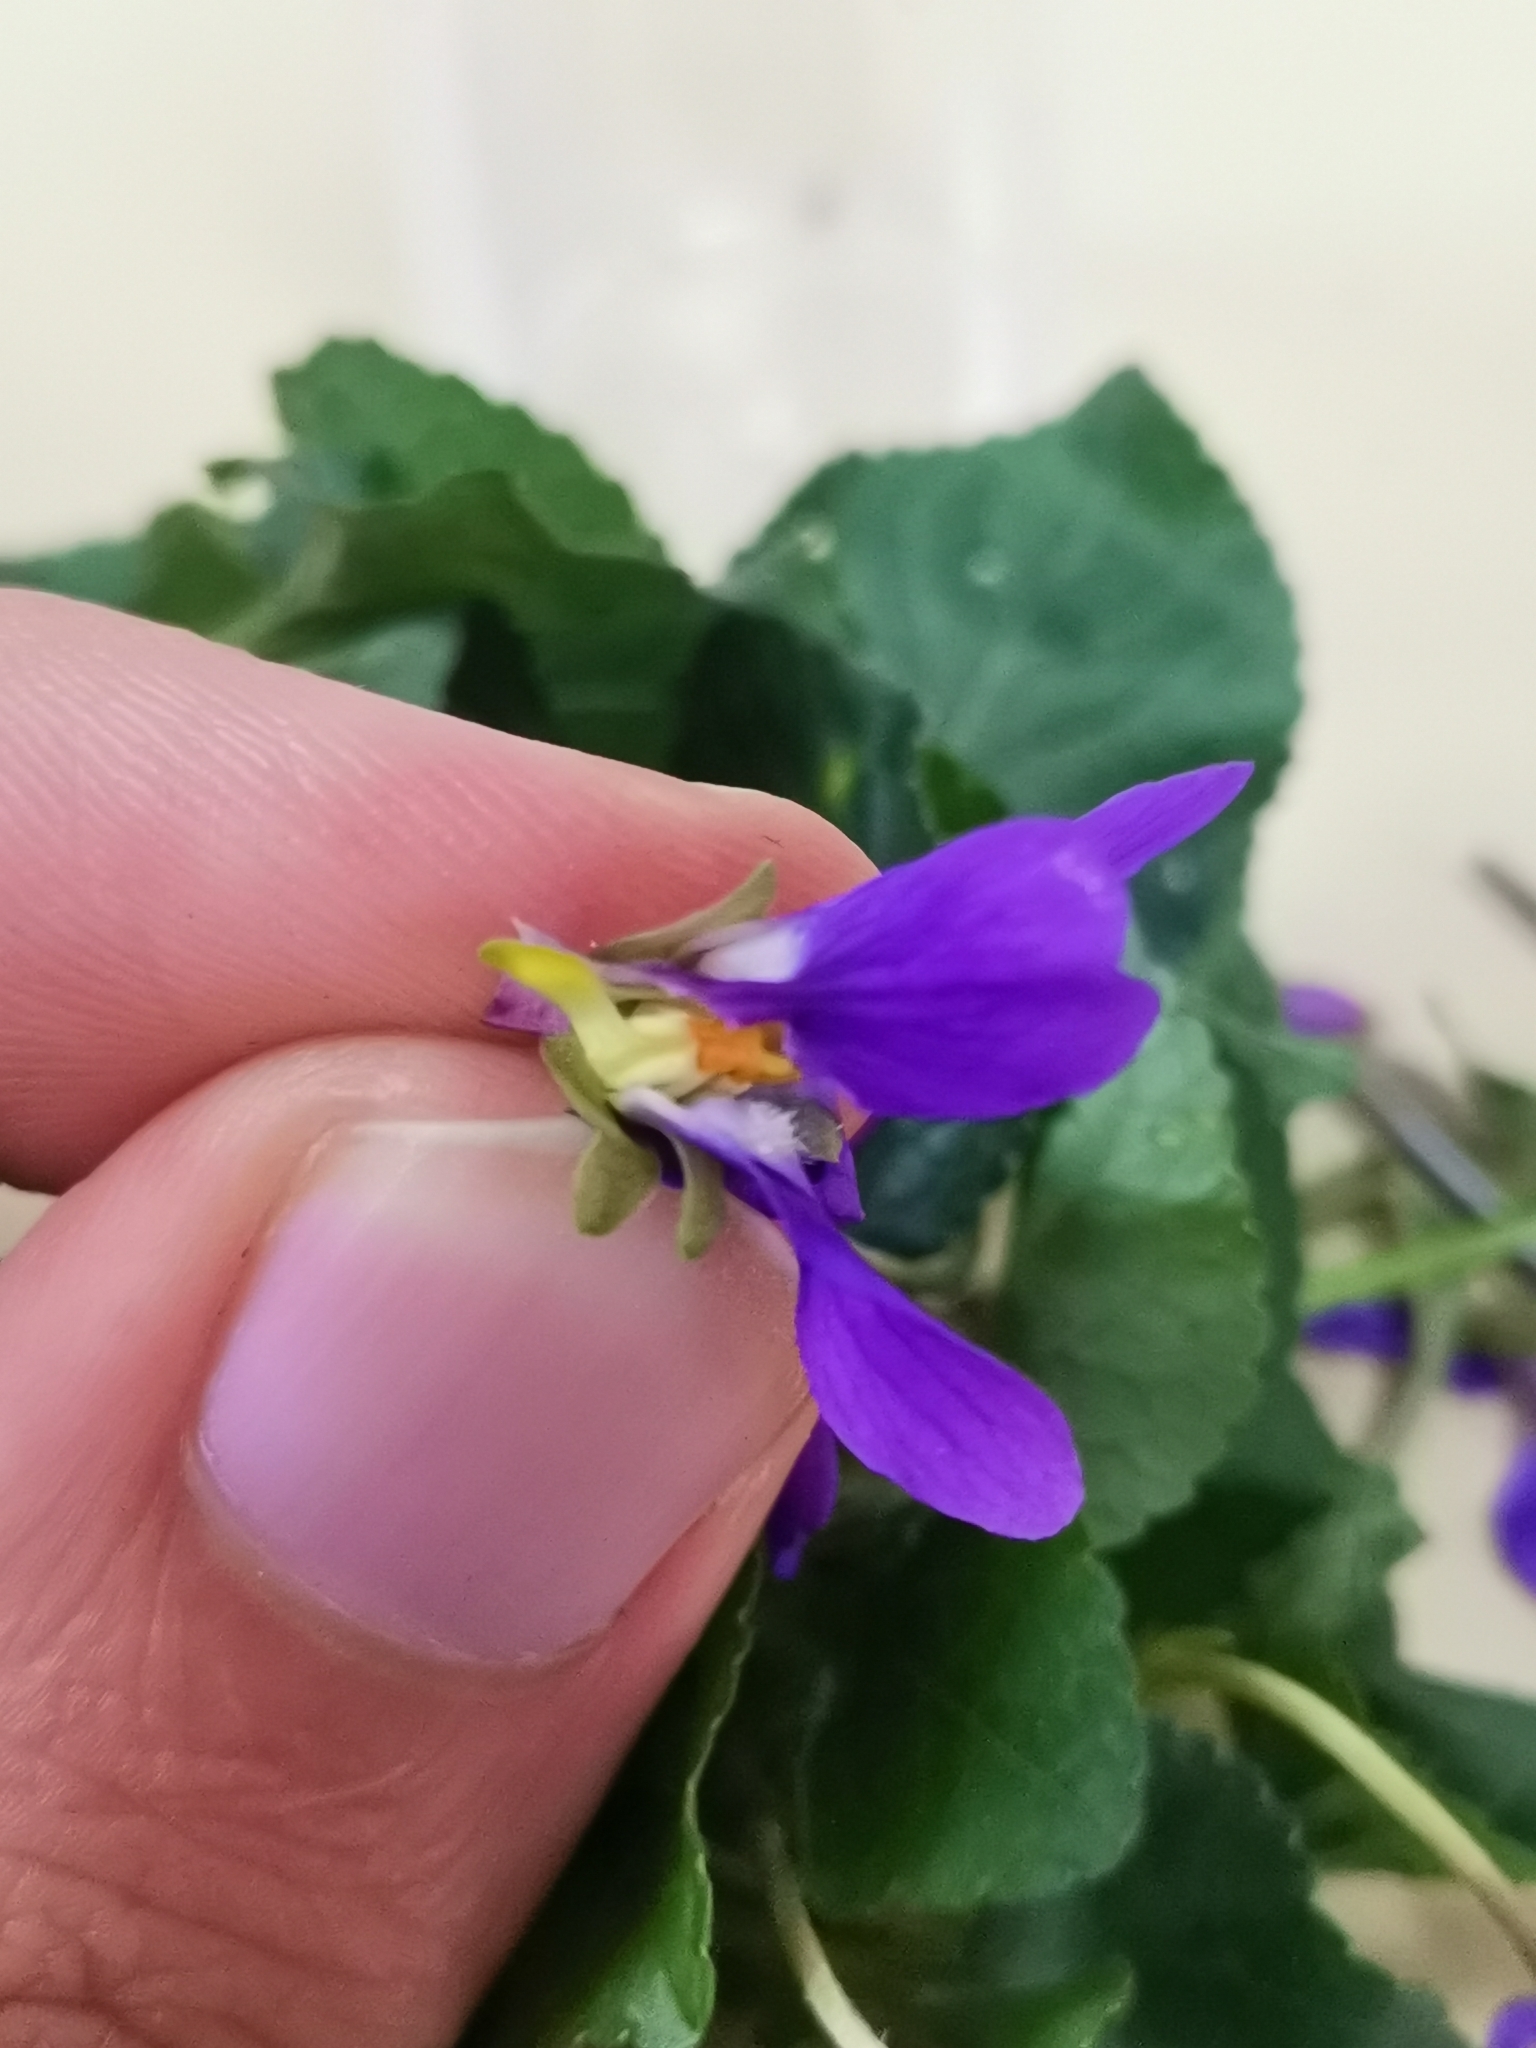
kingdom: Plantae
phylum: Tracheophyta
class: Magnoliopsida
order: Malpighiales
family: Violaceae
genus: Viola
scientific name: Viola odorata
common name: Sweet violet
